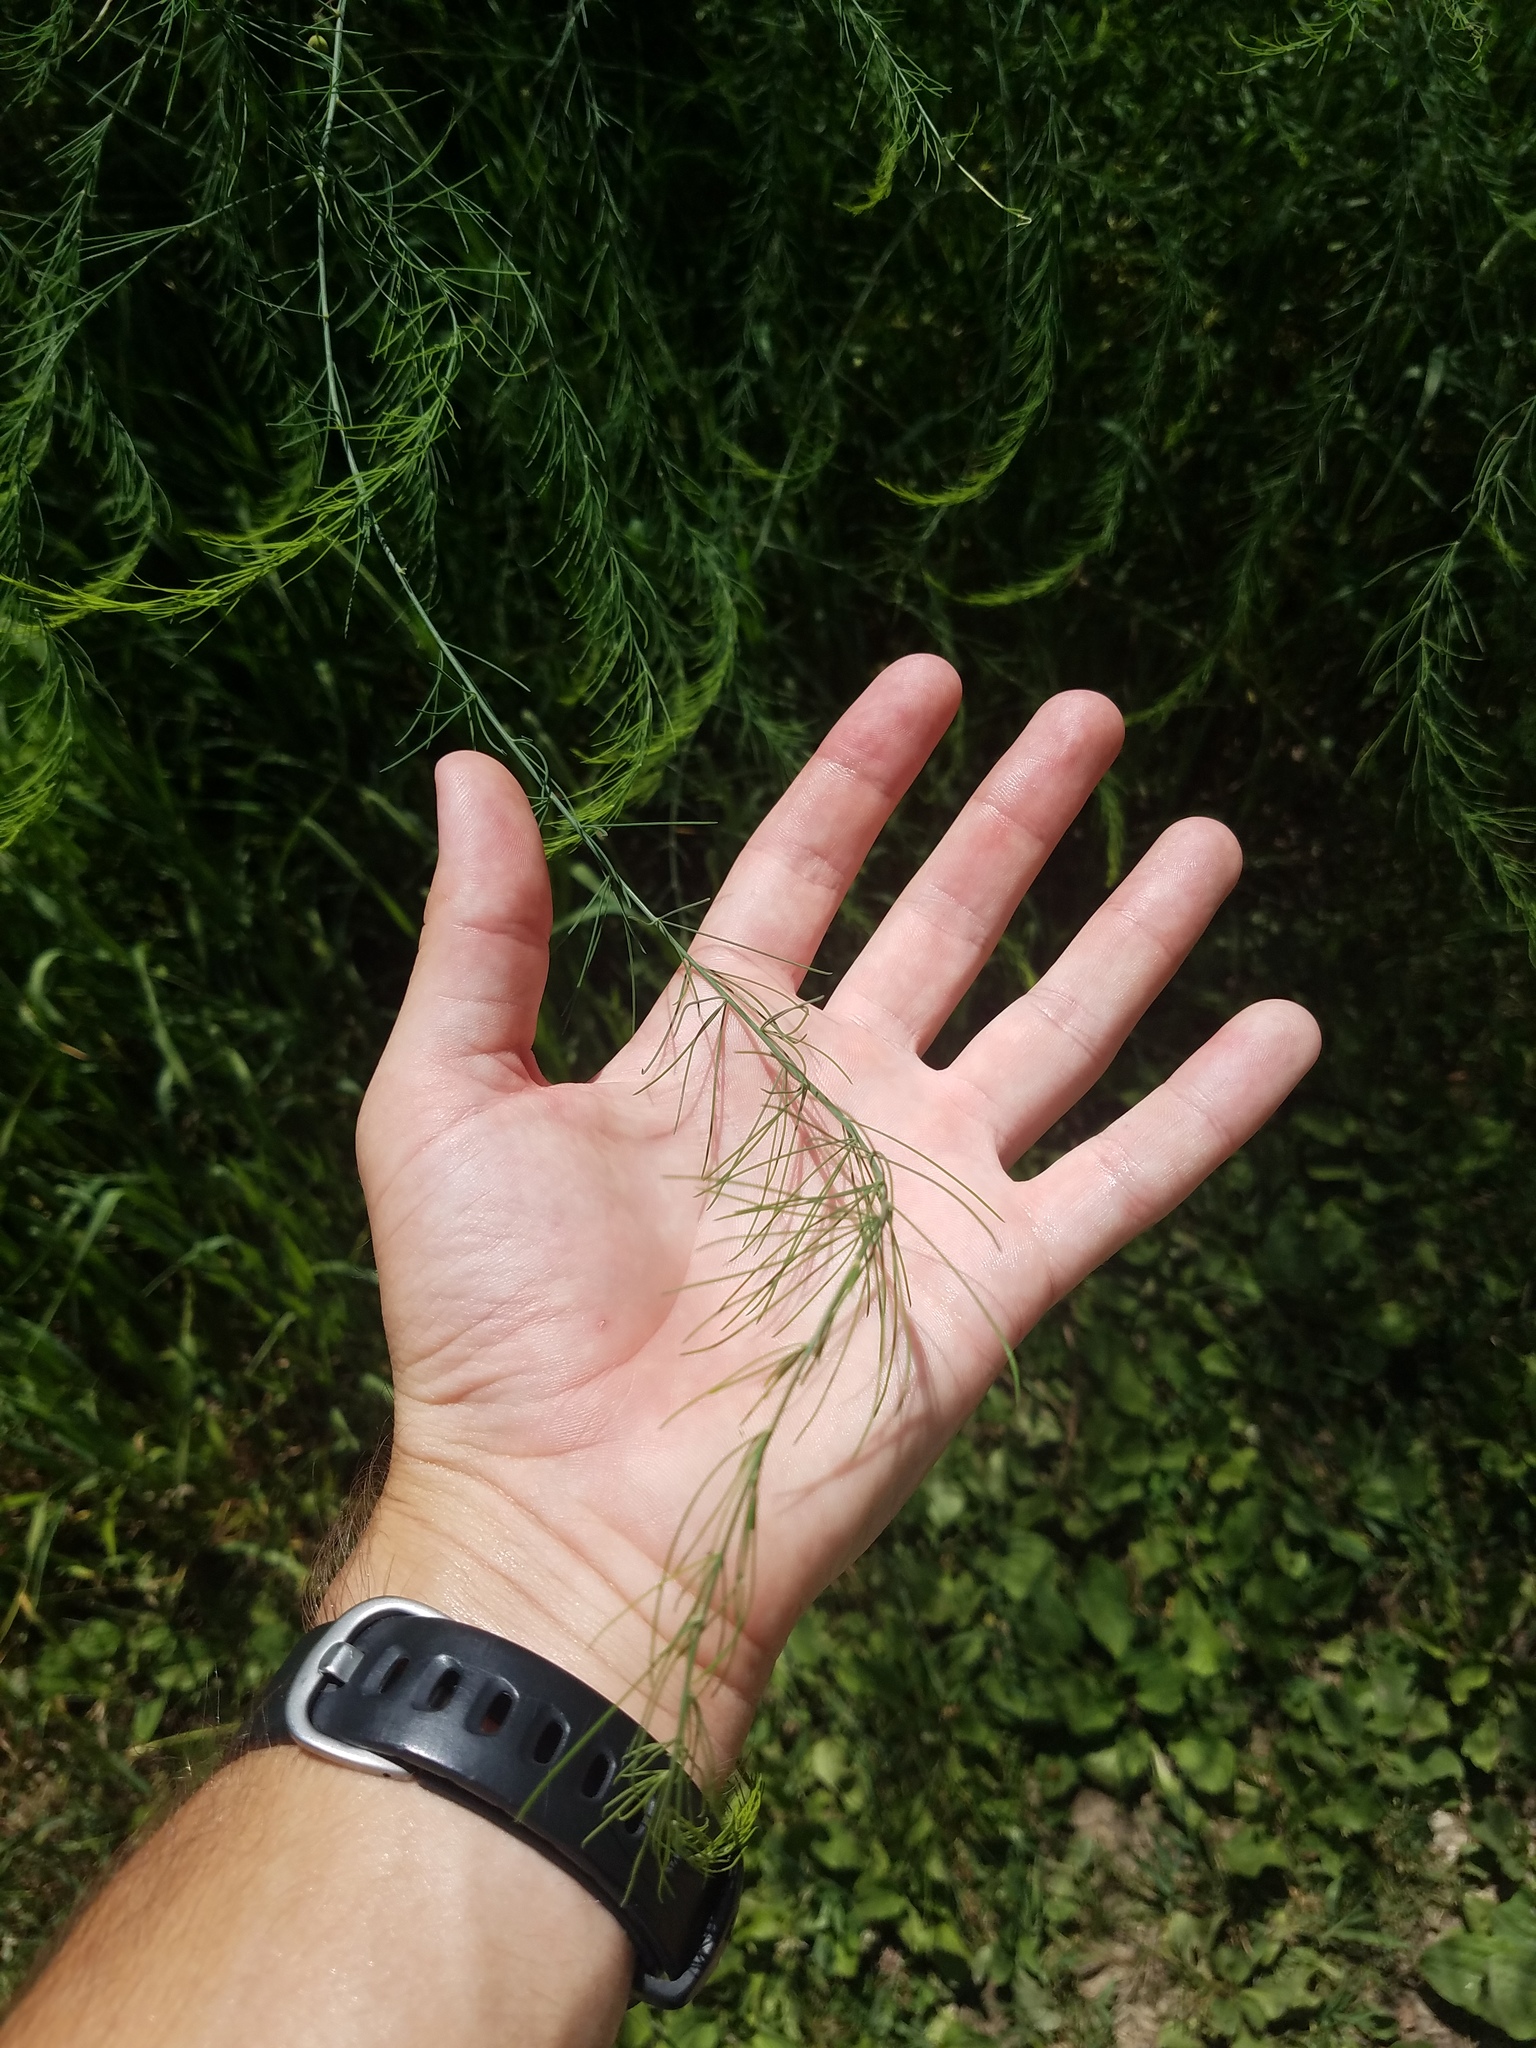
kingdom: Plantae
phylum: Tracheophyta
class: Liliopsida
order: Asparagales
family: Asparagaceae
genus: Asparagus
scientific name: Asparagus officinalis
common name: Garden asparagus
